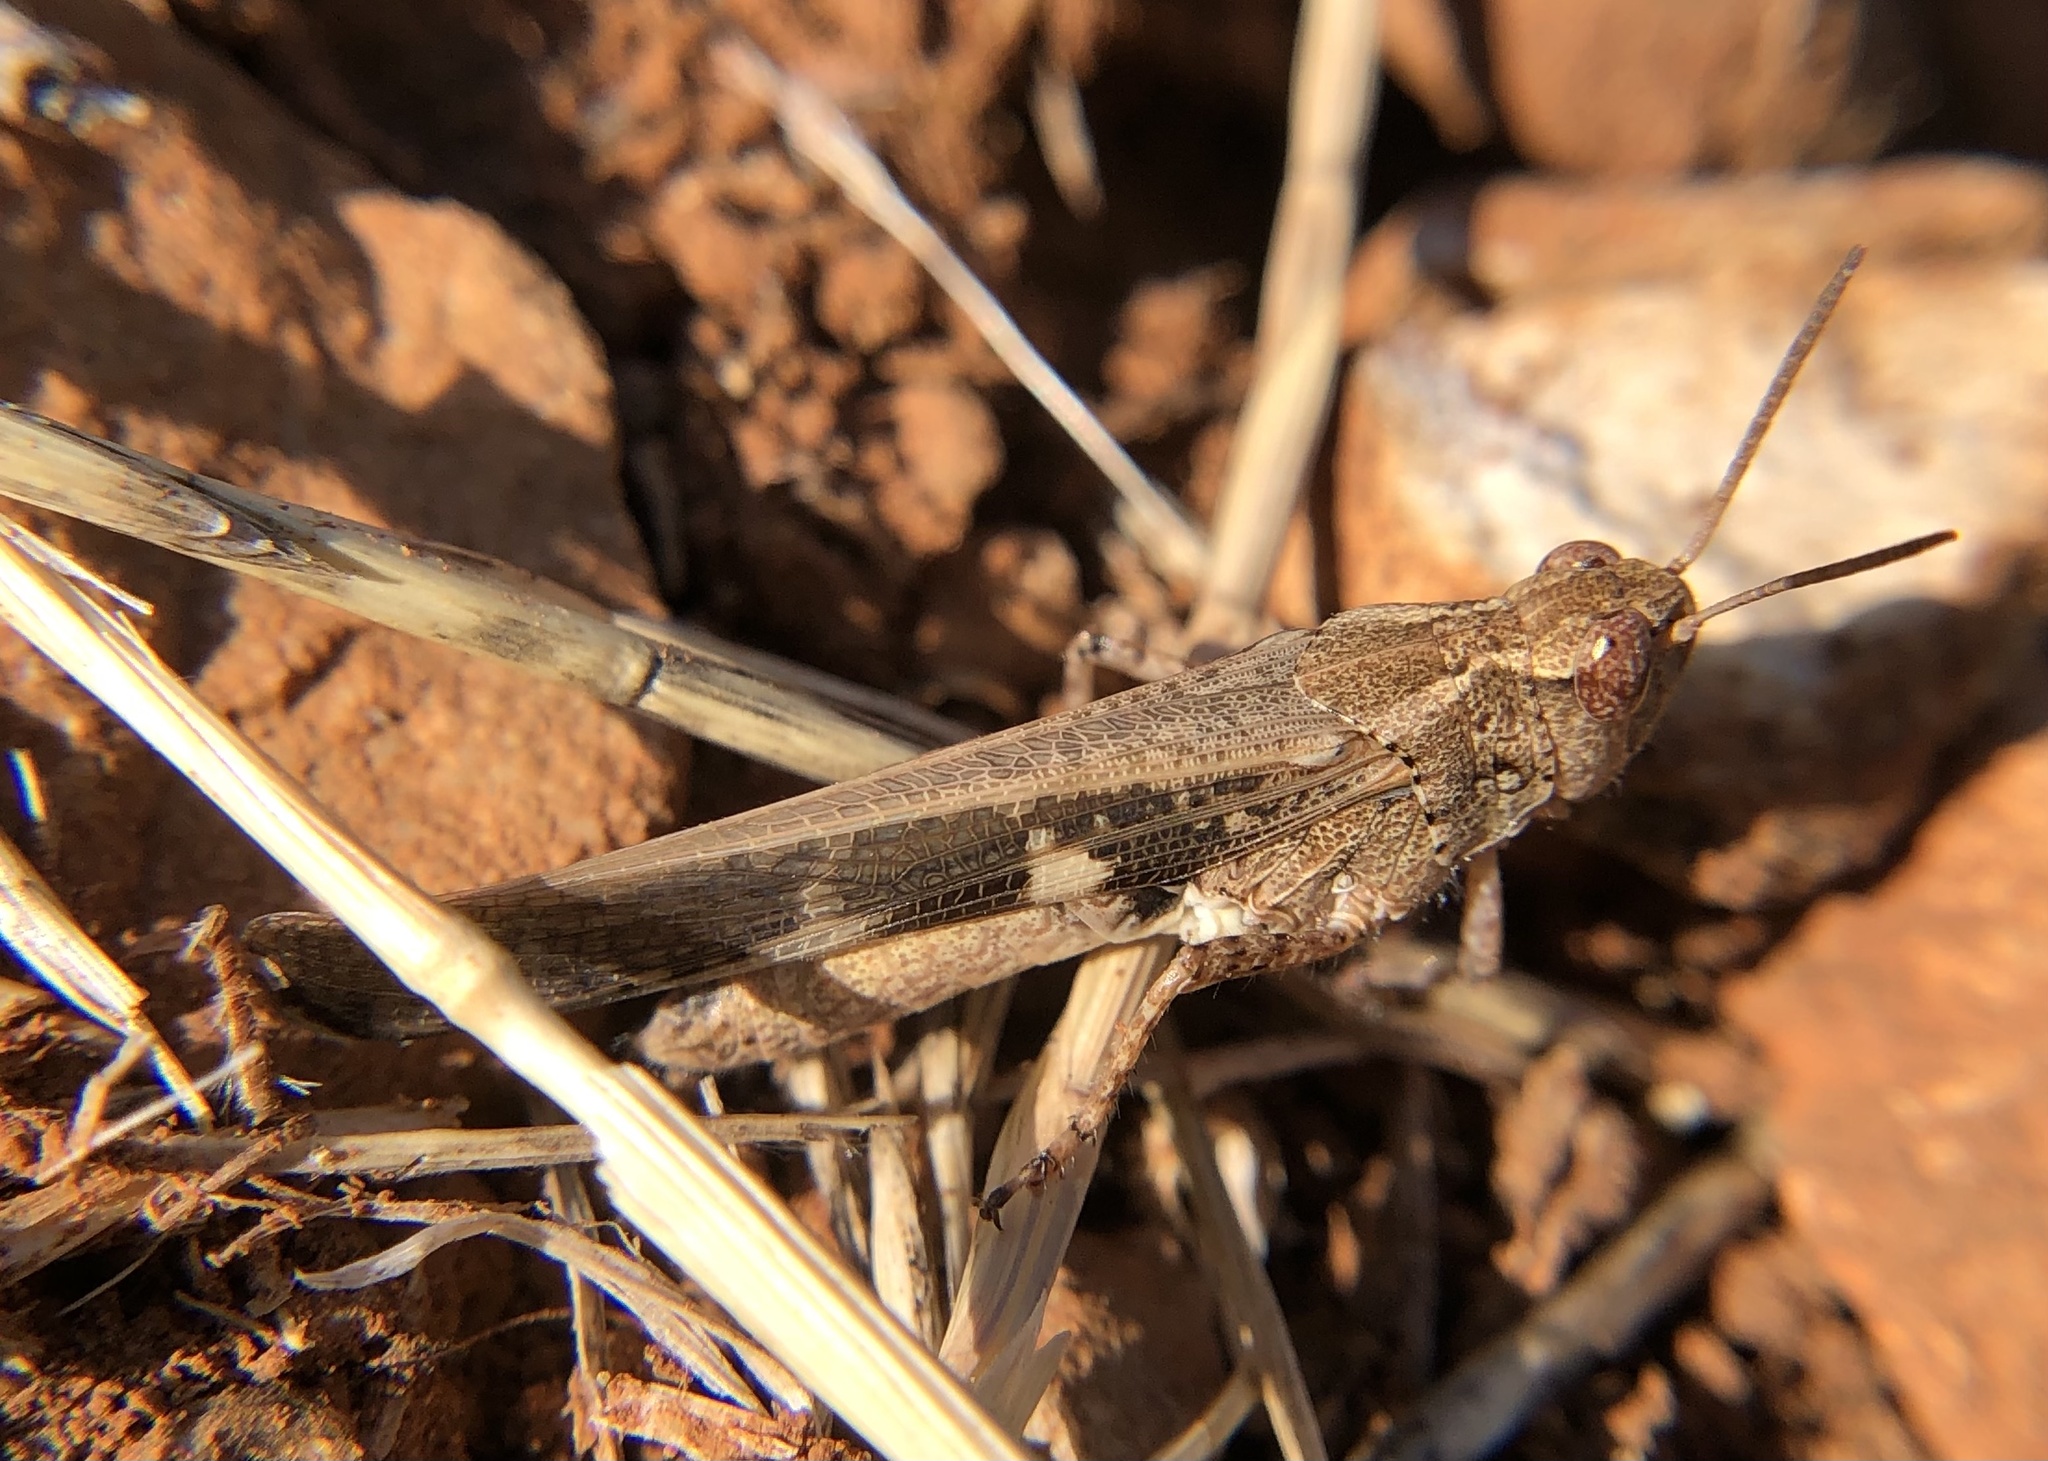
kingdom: Animalia
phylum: Arthropoda
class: Insecta
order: Orthoptera
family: Acrididae
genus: Aiolopus
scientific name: Aiolopus strepens
